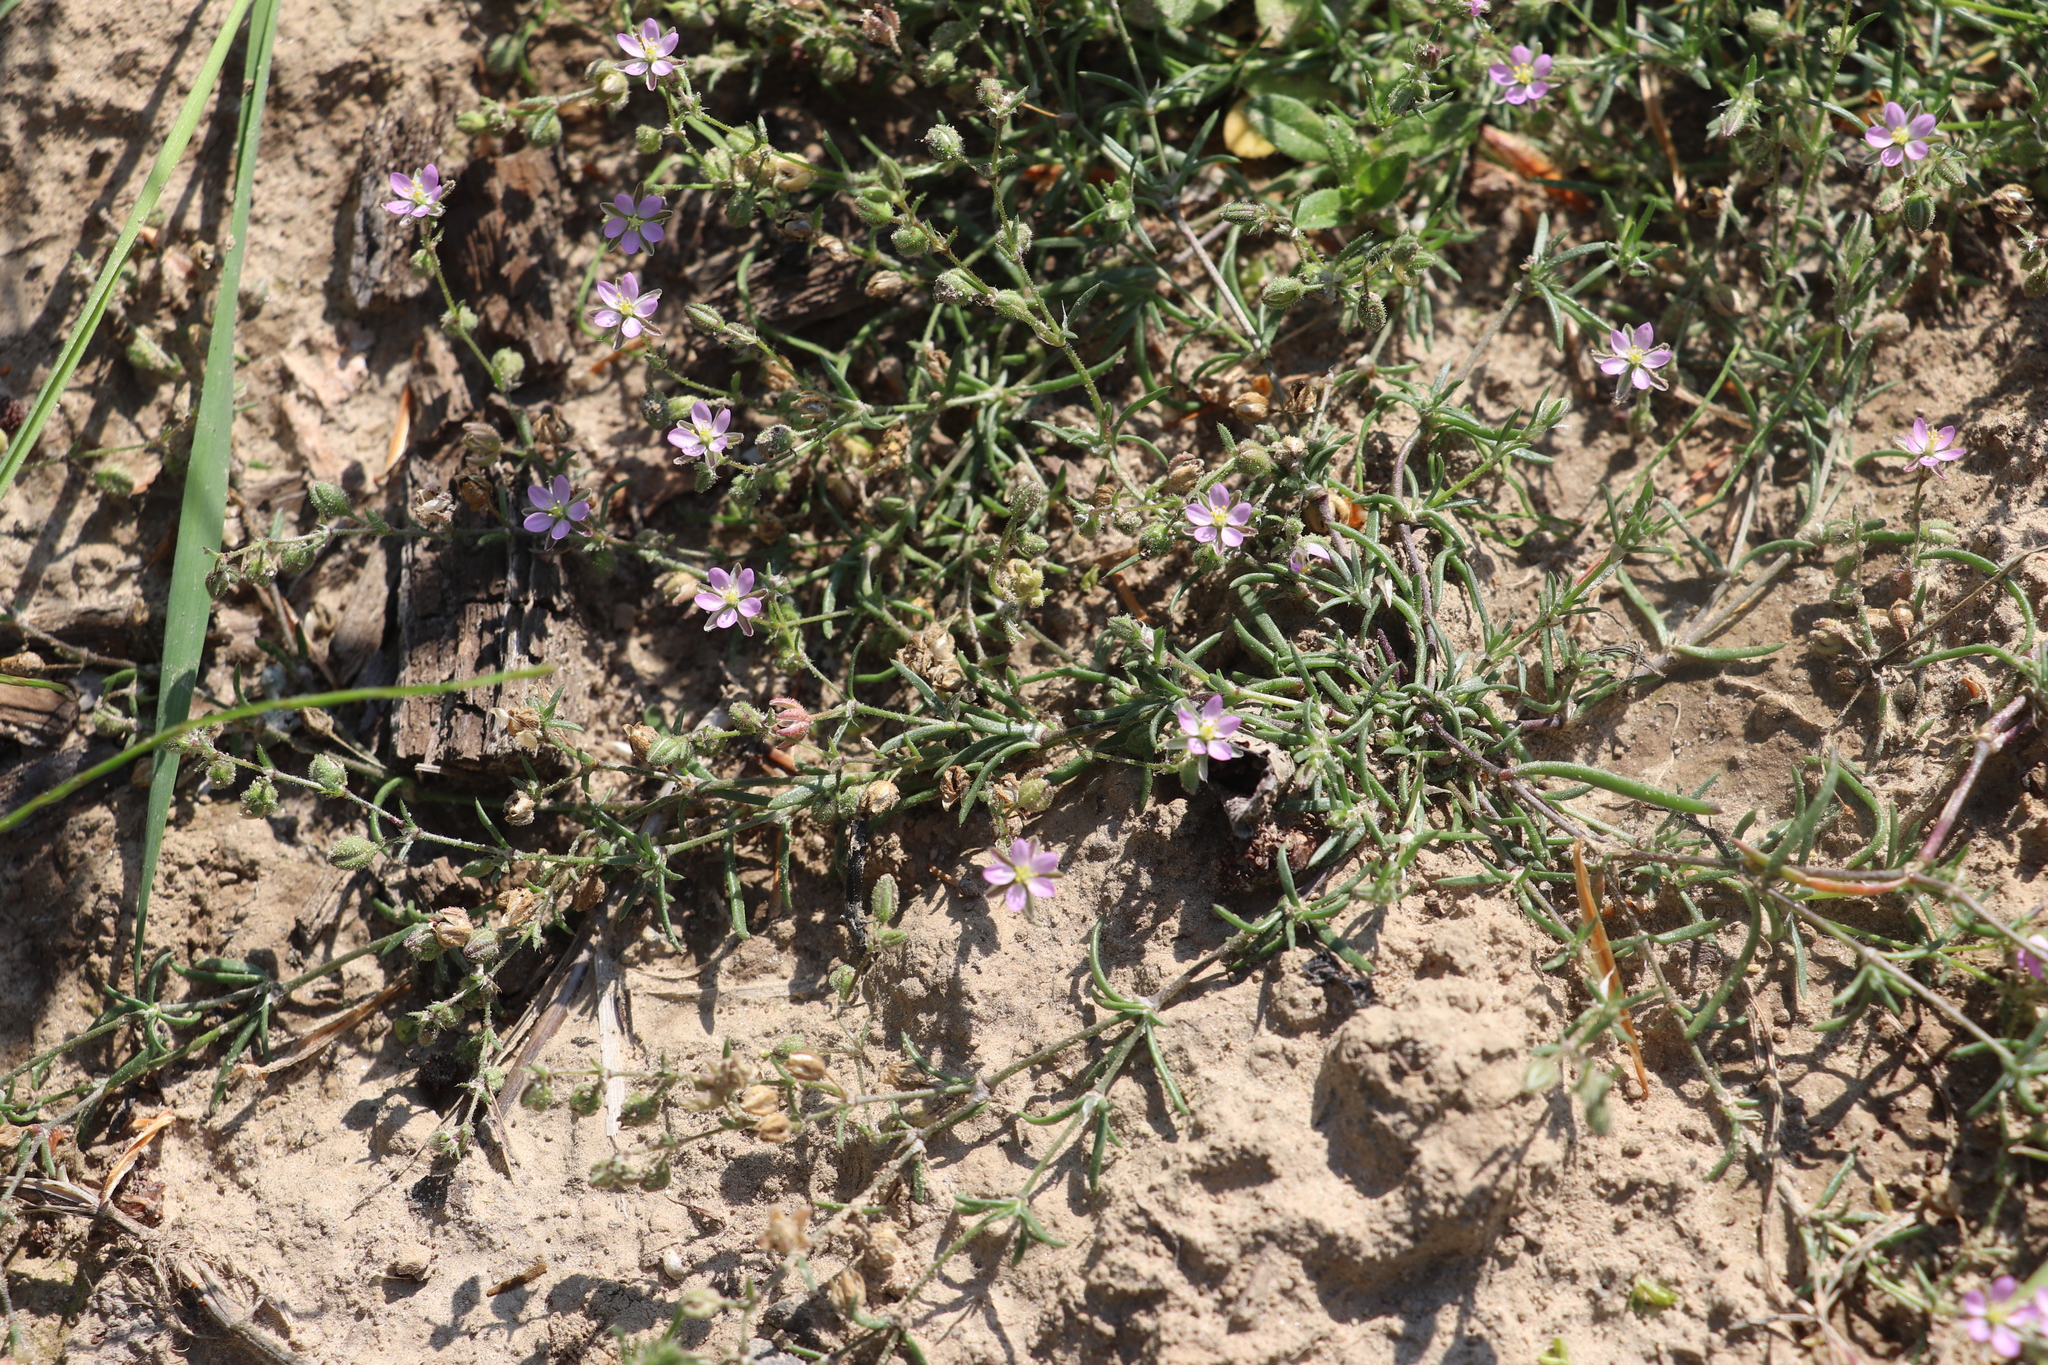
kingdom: Plantae
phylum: Tracheophyta
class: Magnoliopsida
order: Caryophyllales
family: Caryophyllaceae
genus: Spergularia
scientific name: Spergularia rubra
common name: Red sand-spurrey
